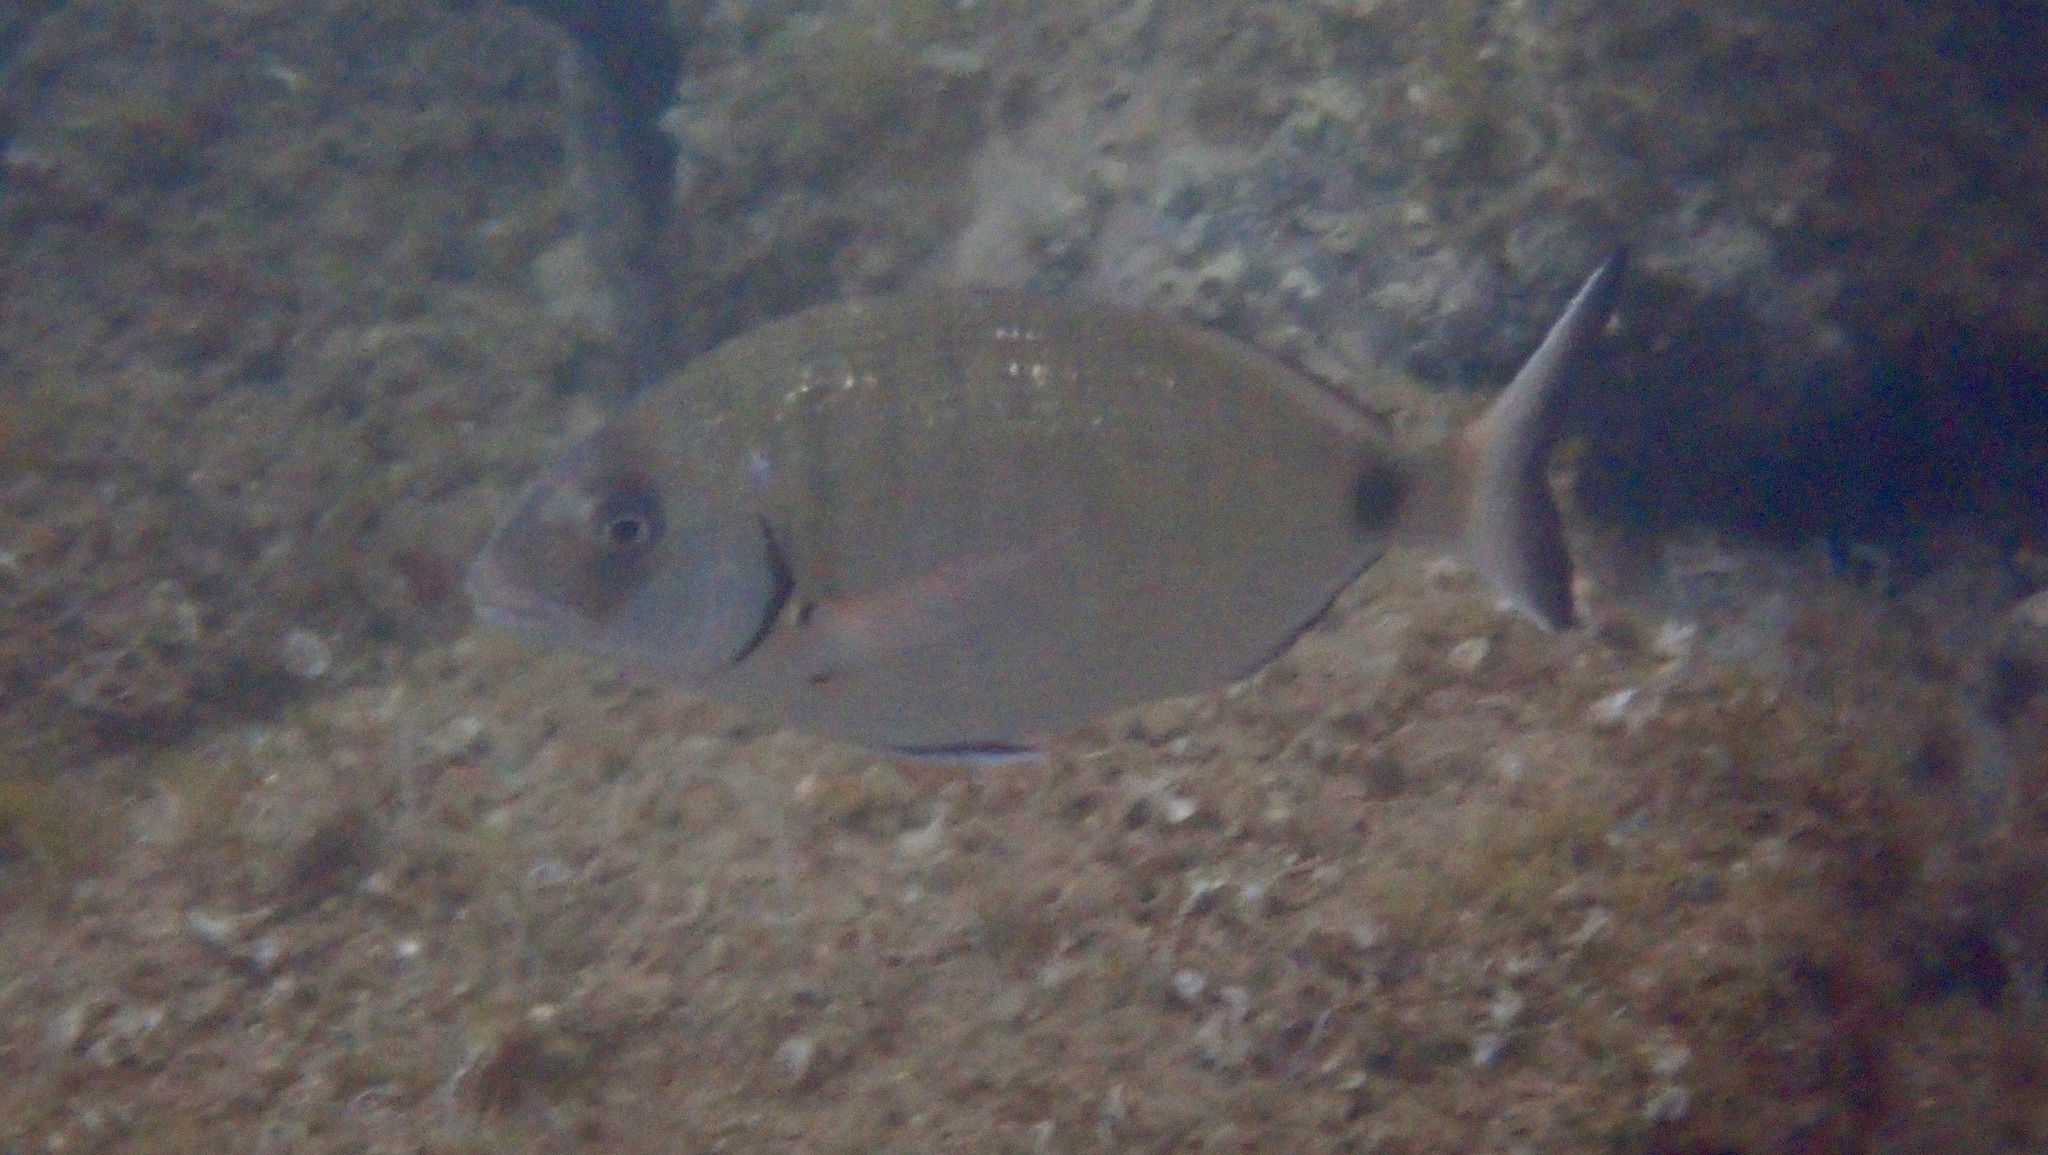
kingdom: Animalia
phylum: Chordata
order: Perciformes
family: Sparidae
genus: Diplodus
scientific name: Diplodus sargus
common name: White seabream
